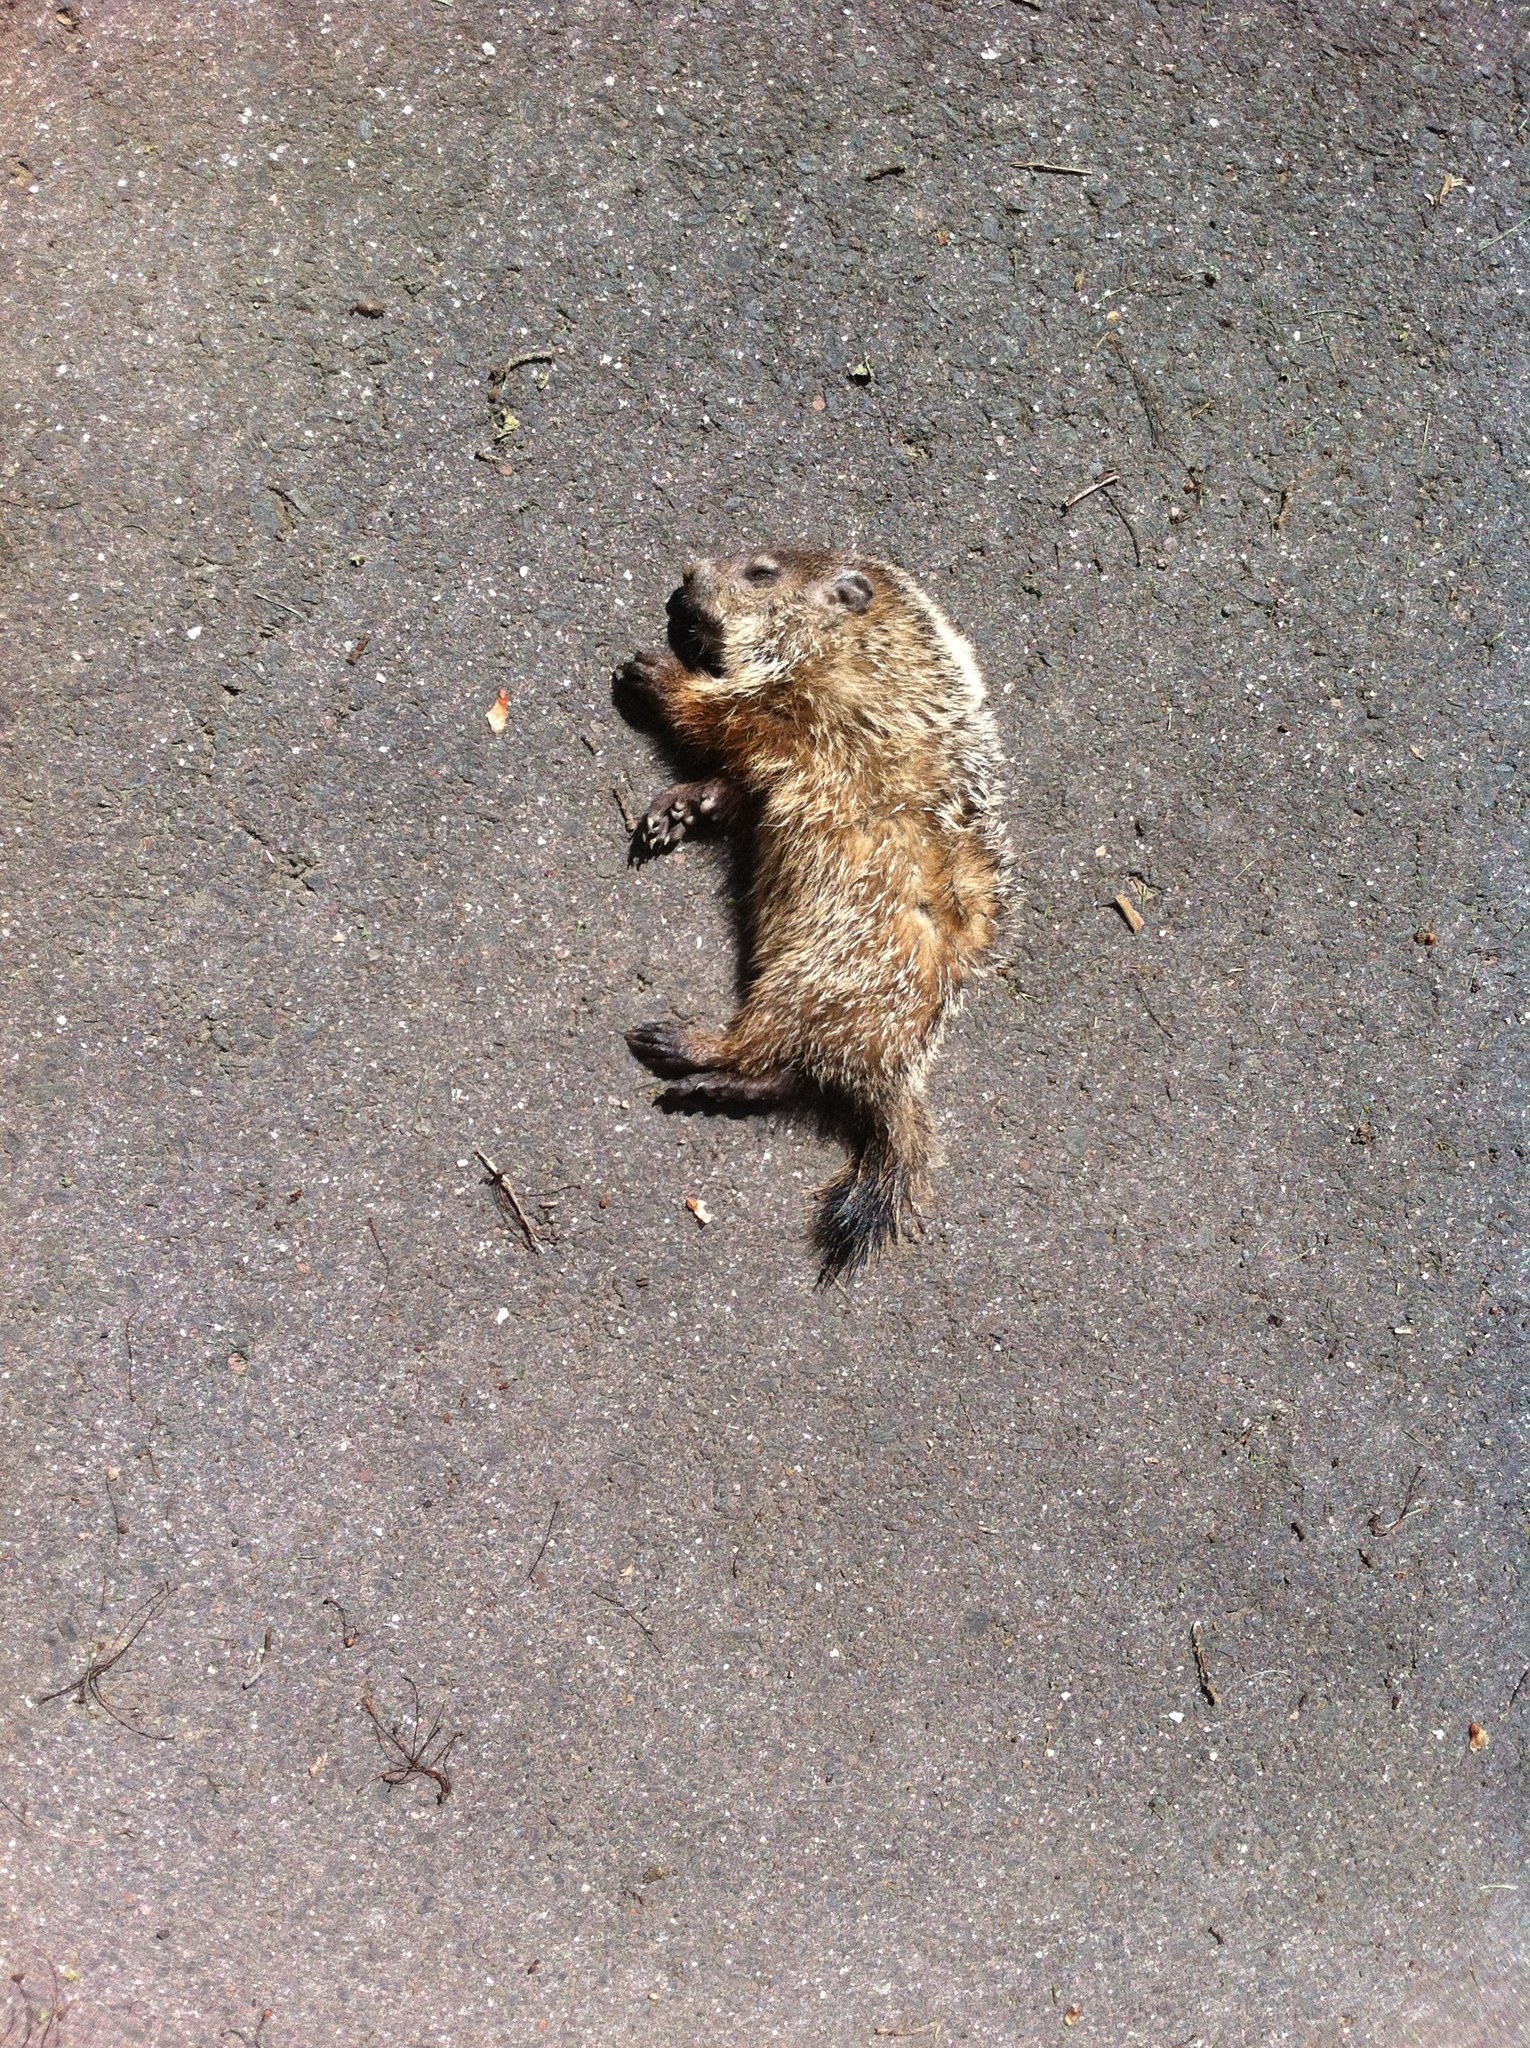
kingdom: Animalia
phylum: Chordata
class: Mammalia
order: Rodentia
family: Sciuridae
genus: Marmota
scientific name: Marmota monax
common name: Groundhog
